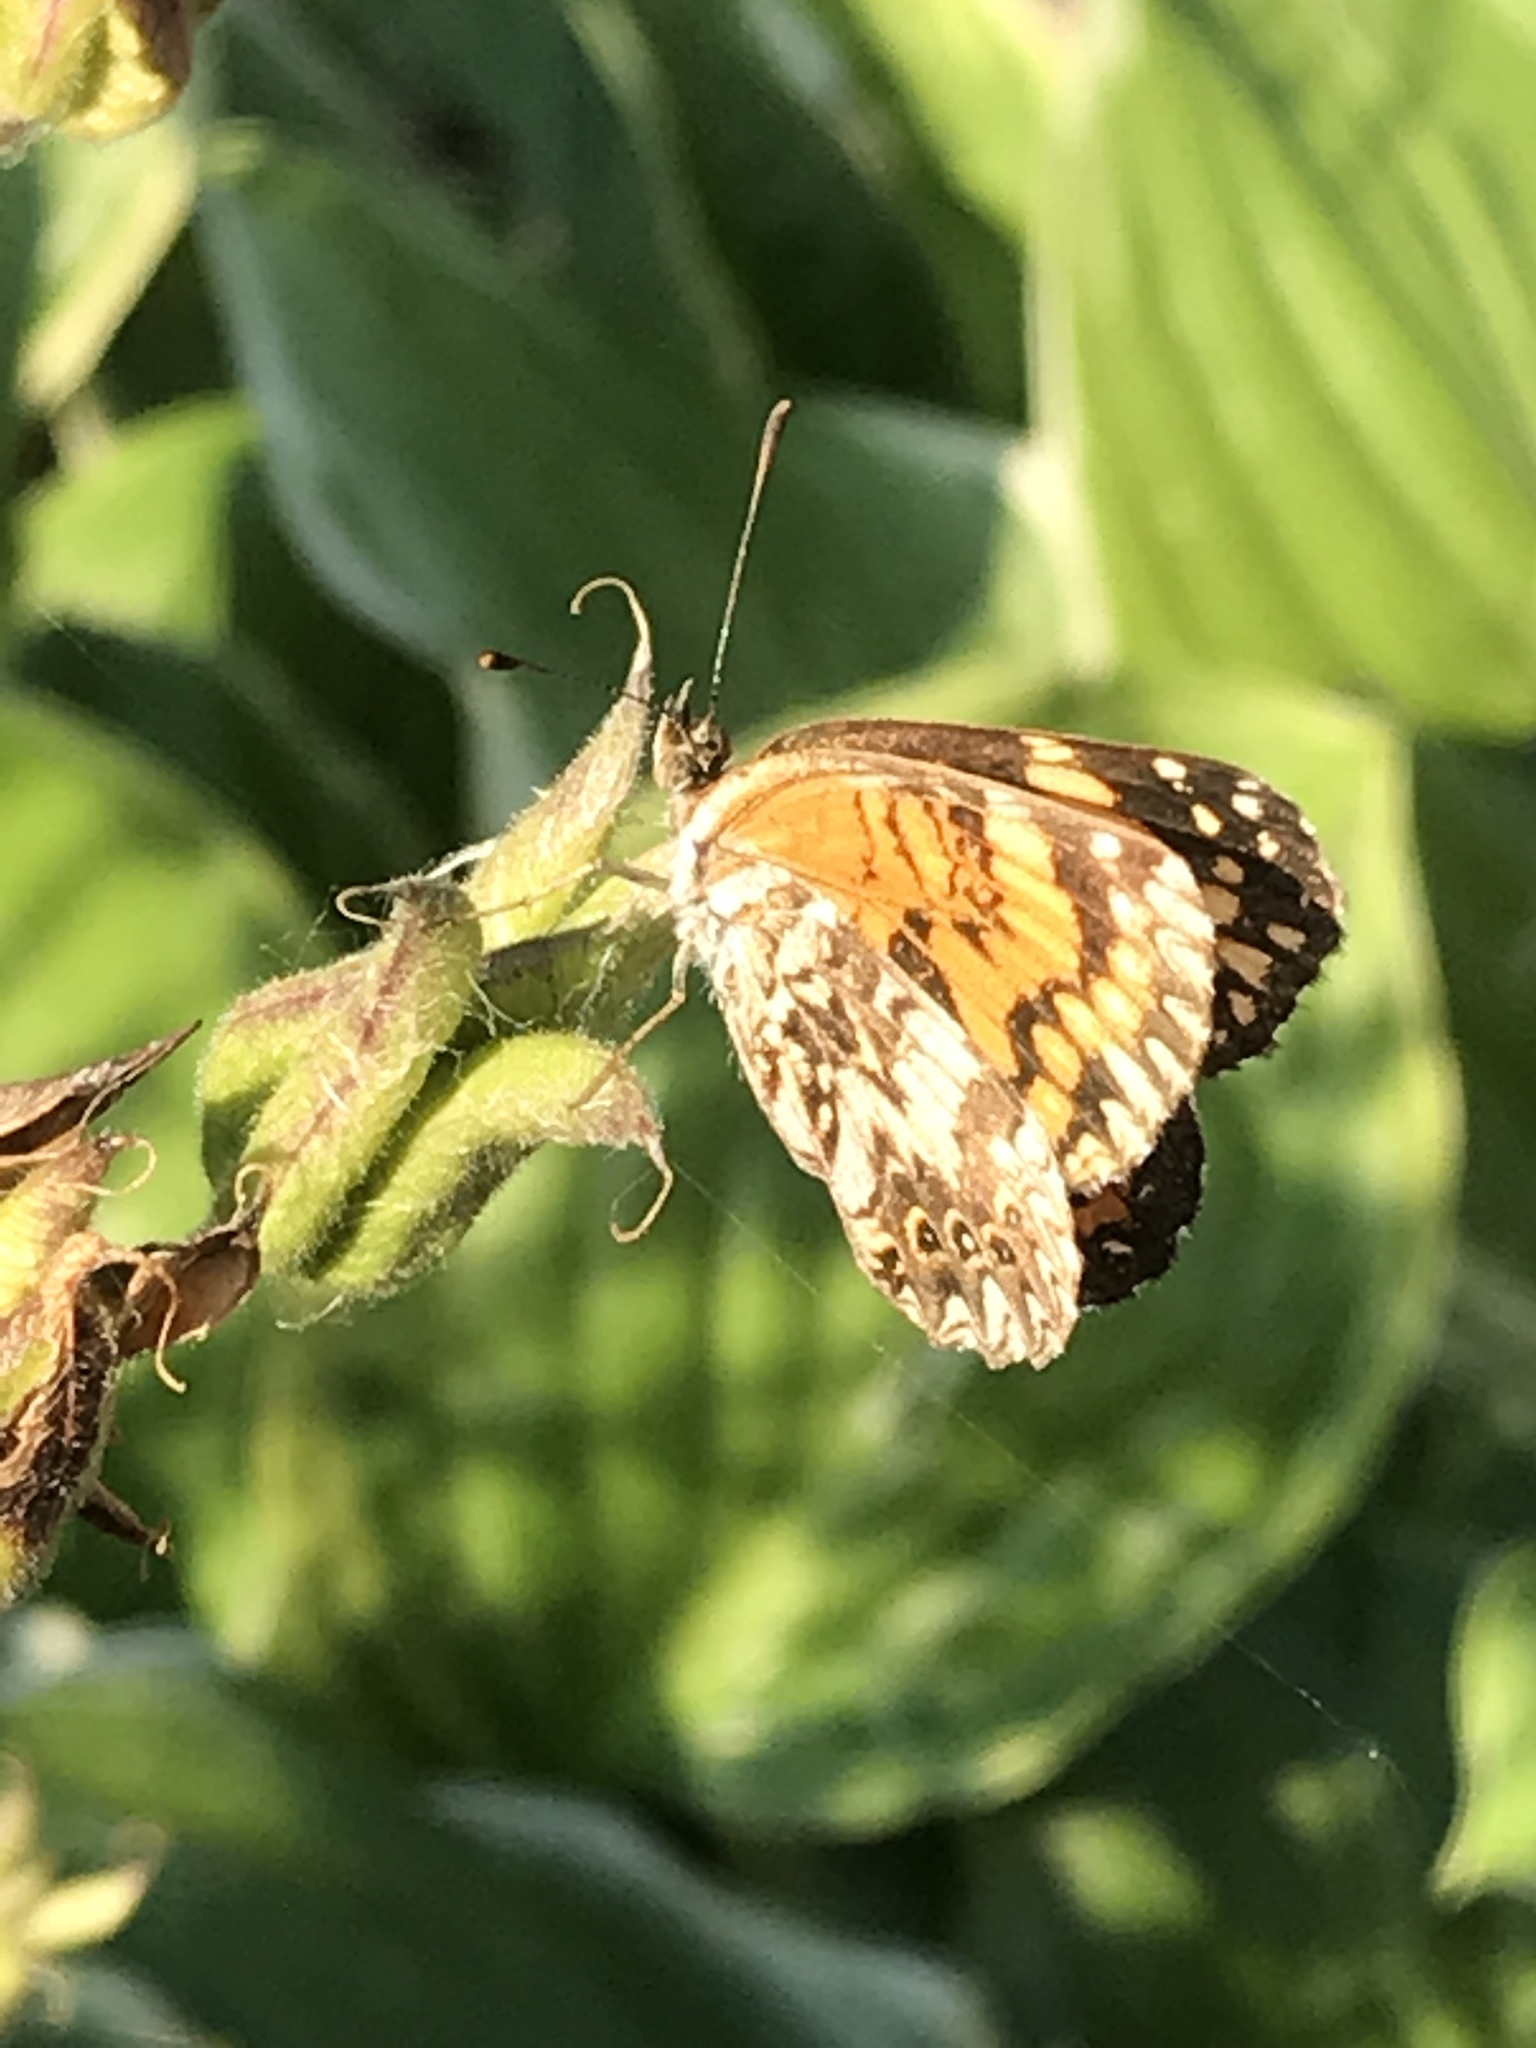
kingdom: Animalia
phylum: Arthropoda
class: Insecta
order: Lepidoptera
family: Nymphalidae
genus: Chlosyne
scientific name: Chlosyne gorgone
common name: Gorgone checkerspot
